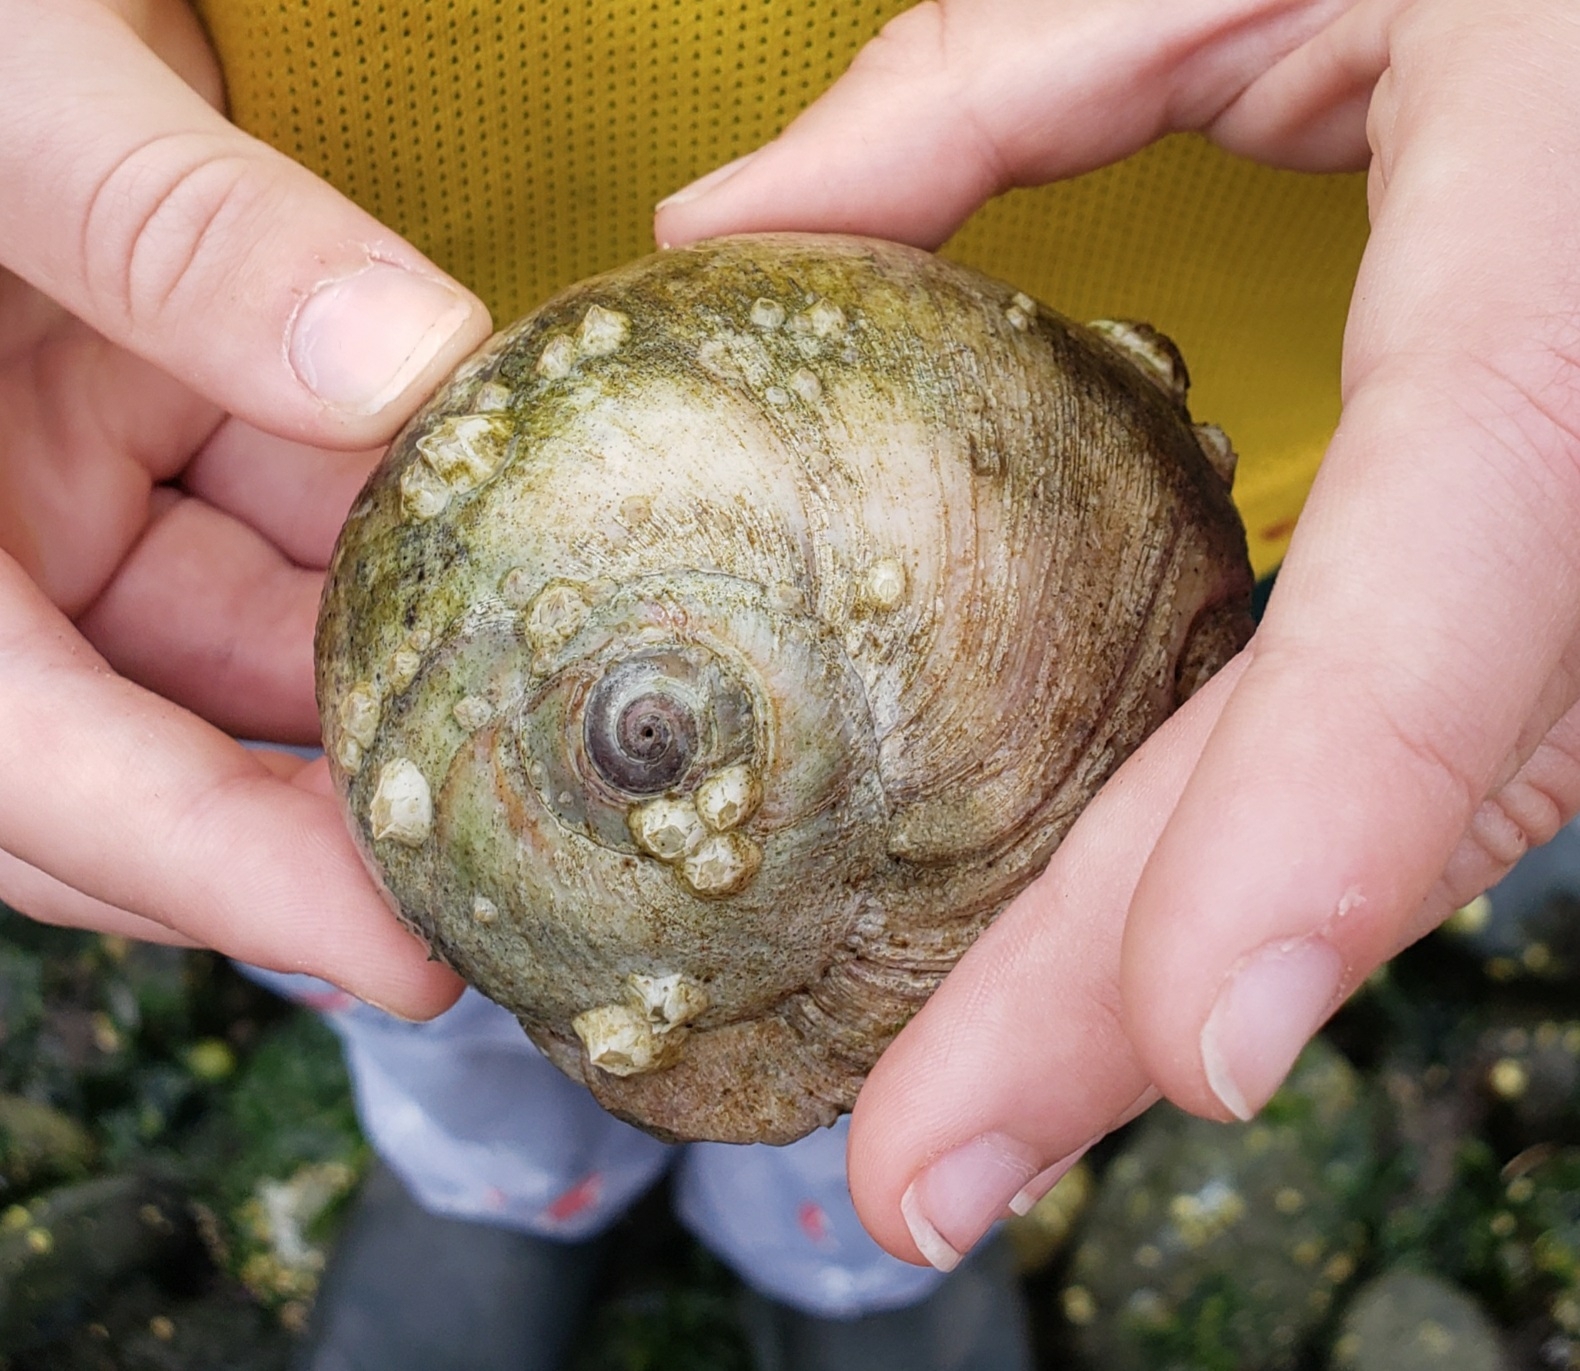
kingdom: Animalia
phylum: Mollusca
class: Gastropoda
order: Littorinimorpha
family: Naticidae
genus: Neverita
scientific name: Neverita lewisii
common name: Lewis' moonsnail
